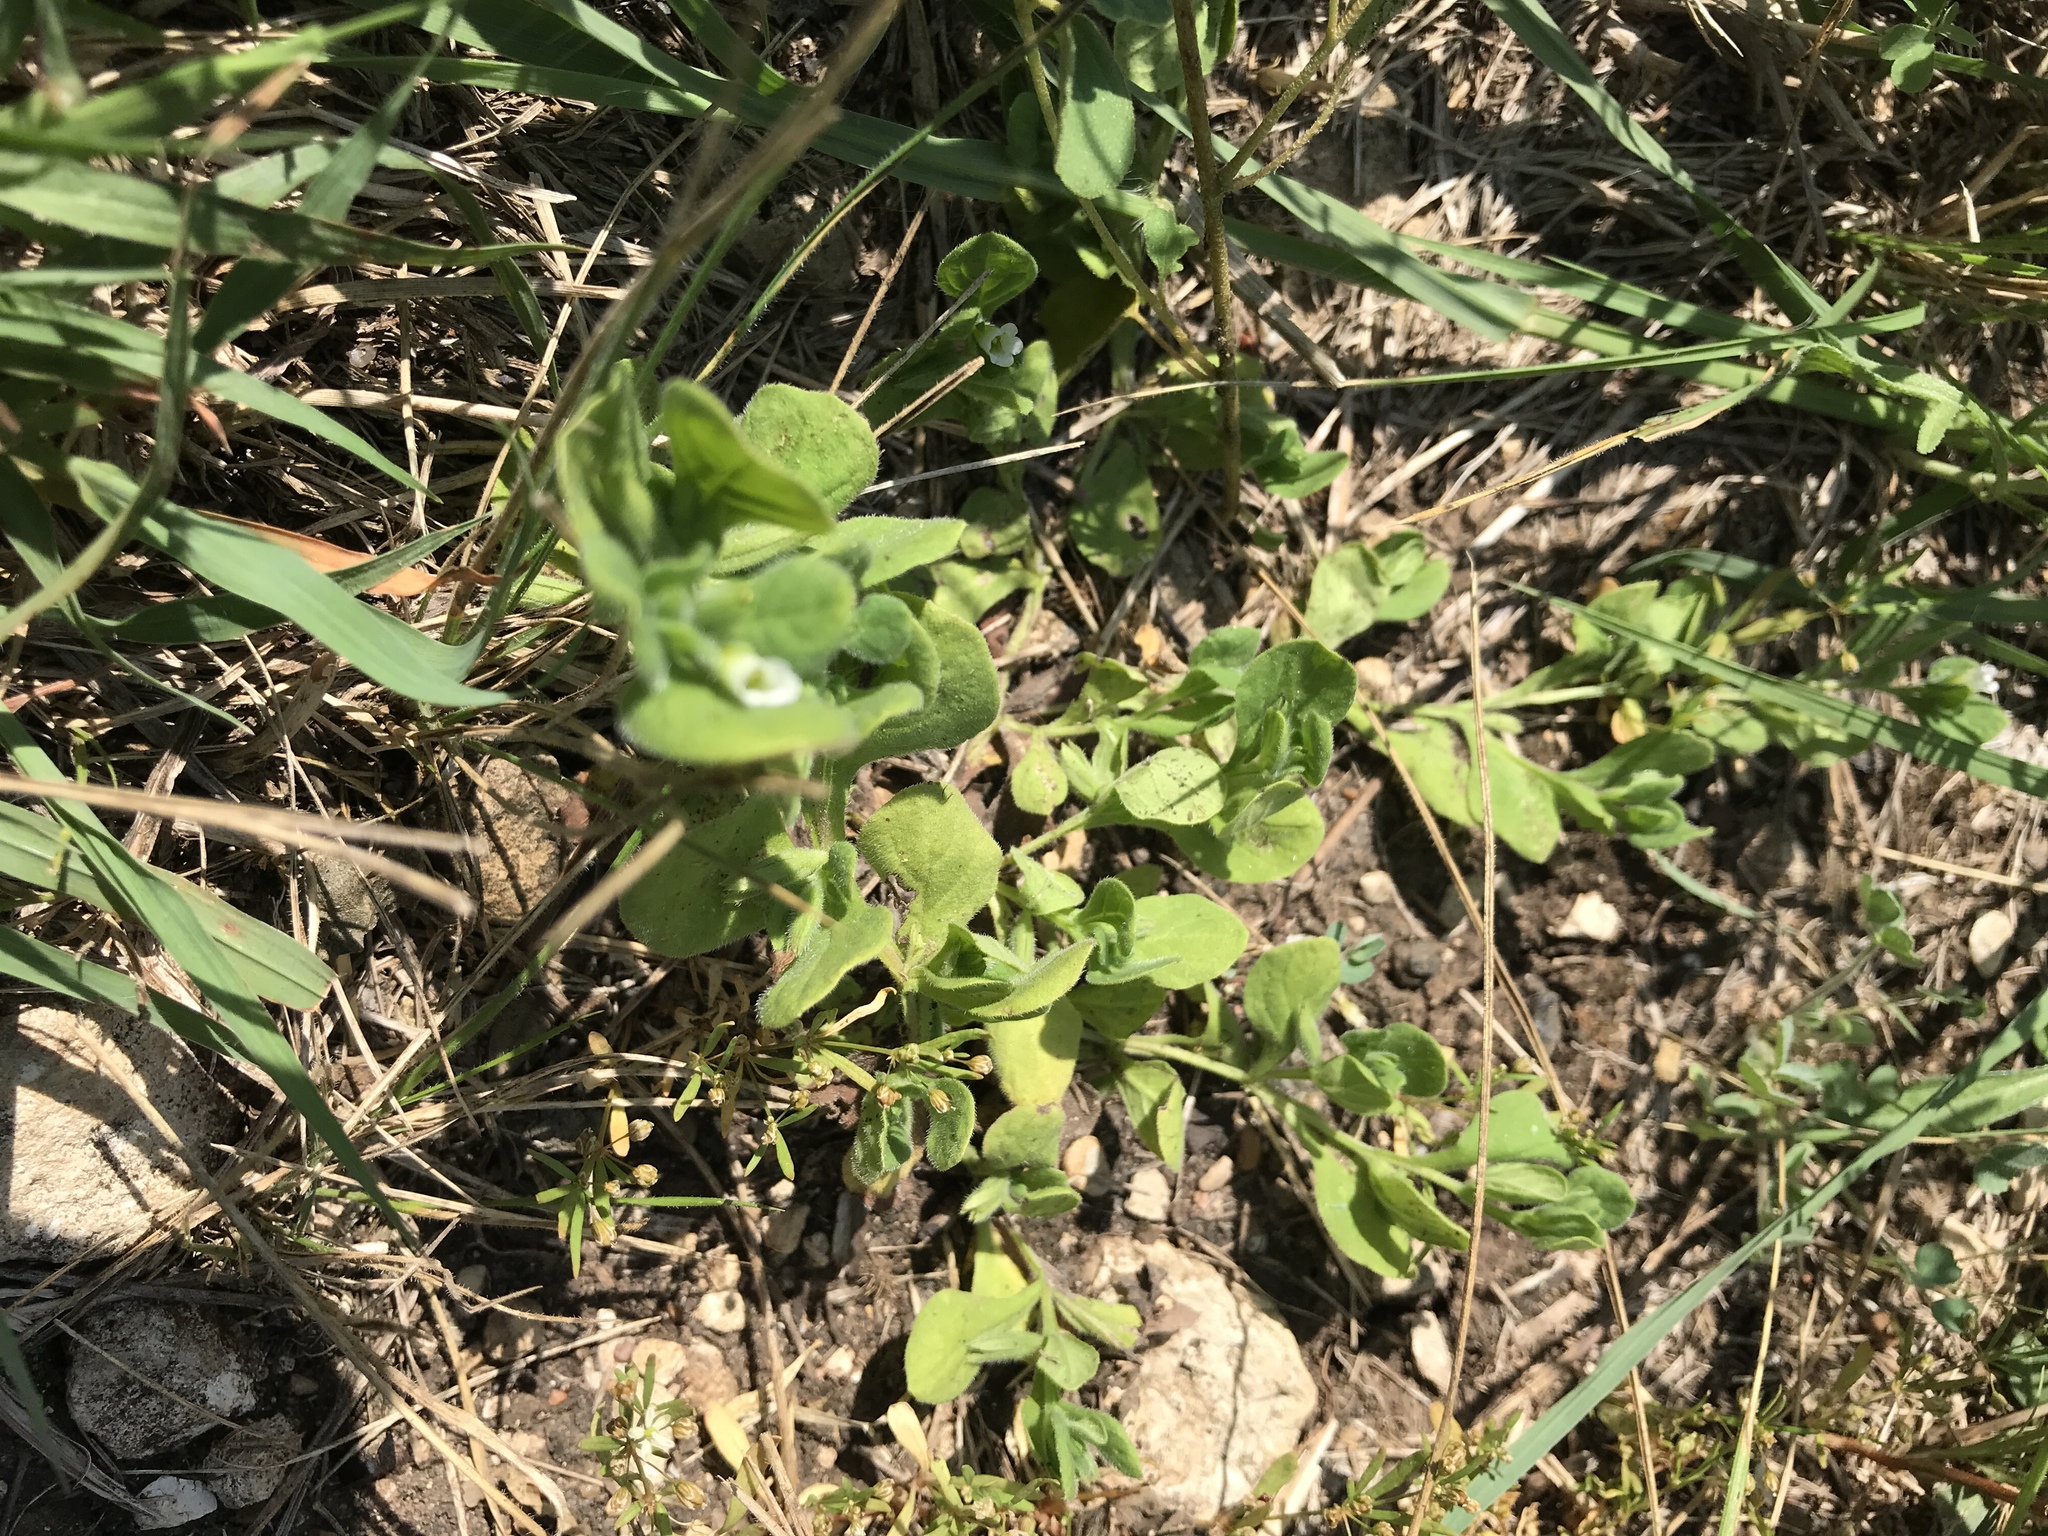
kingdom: Plantae
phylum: Tracheophyta
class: Magnoliopsida
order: Boraginales
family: Namaceae
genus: Nama
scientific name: Nama jamaicensis
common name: Jamaicanweed
